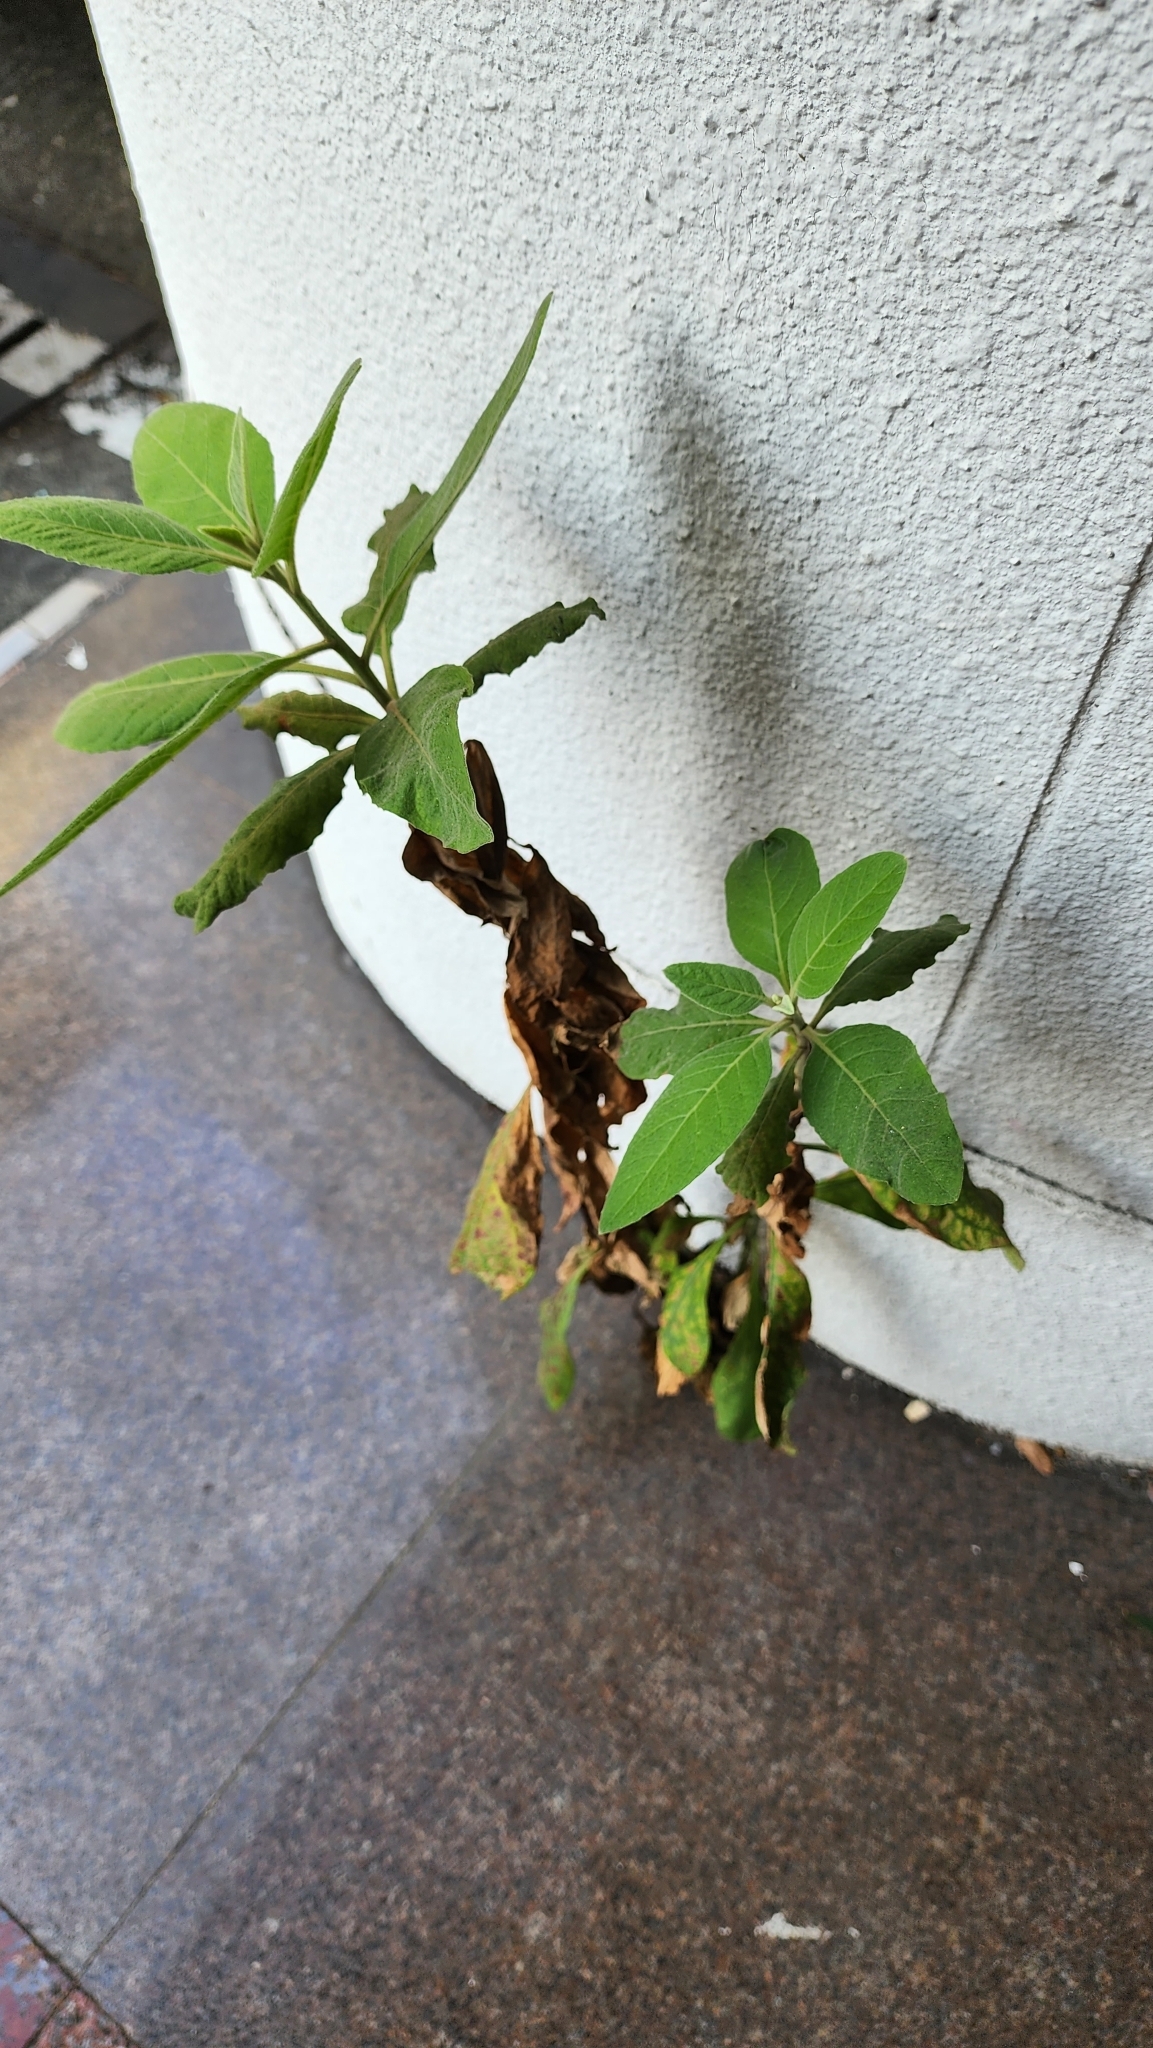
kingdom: Plantae
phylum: Tracheophyta
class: Magnoliopsida
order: Asterales
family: Asteraceae
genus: Pluchea
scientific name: Pluchea carolinensis
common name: Marsh fleabane
